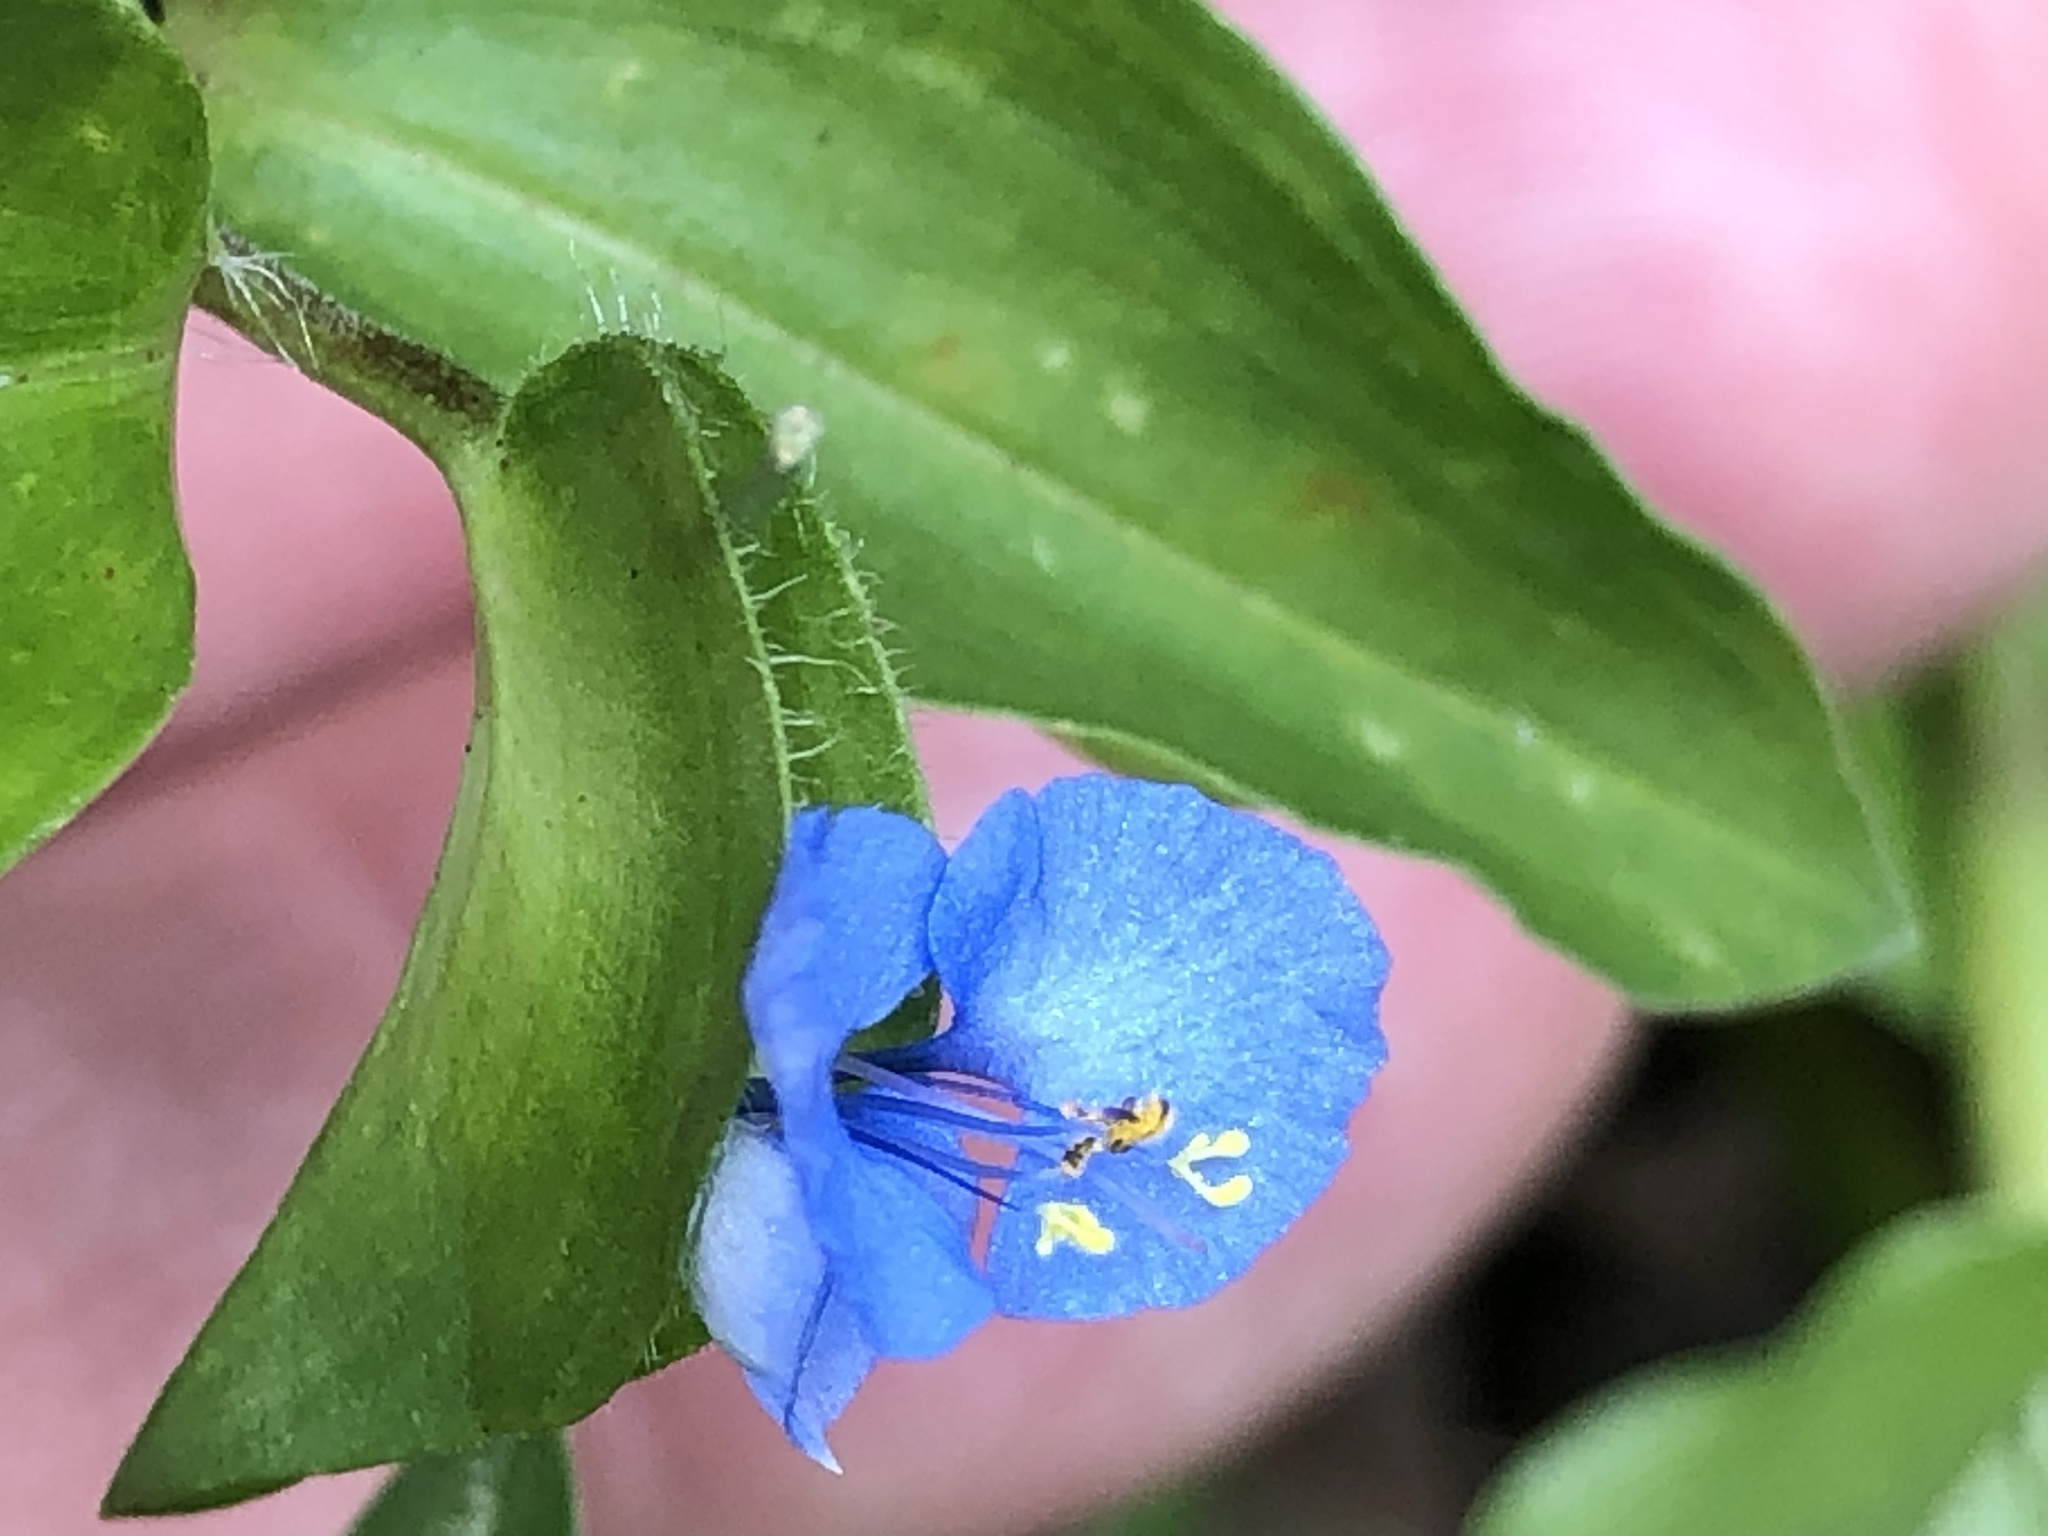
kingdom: Plantae
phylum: Tracheophyta
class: Liliopsida
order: Commelinales
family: Commelinaceae
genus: Commelina
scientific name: Commelina diffusa
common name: Climbing dayflower
